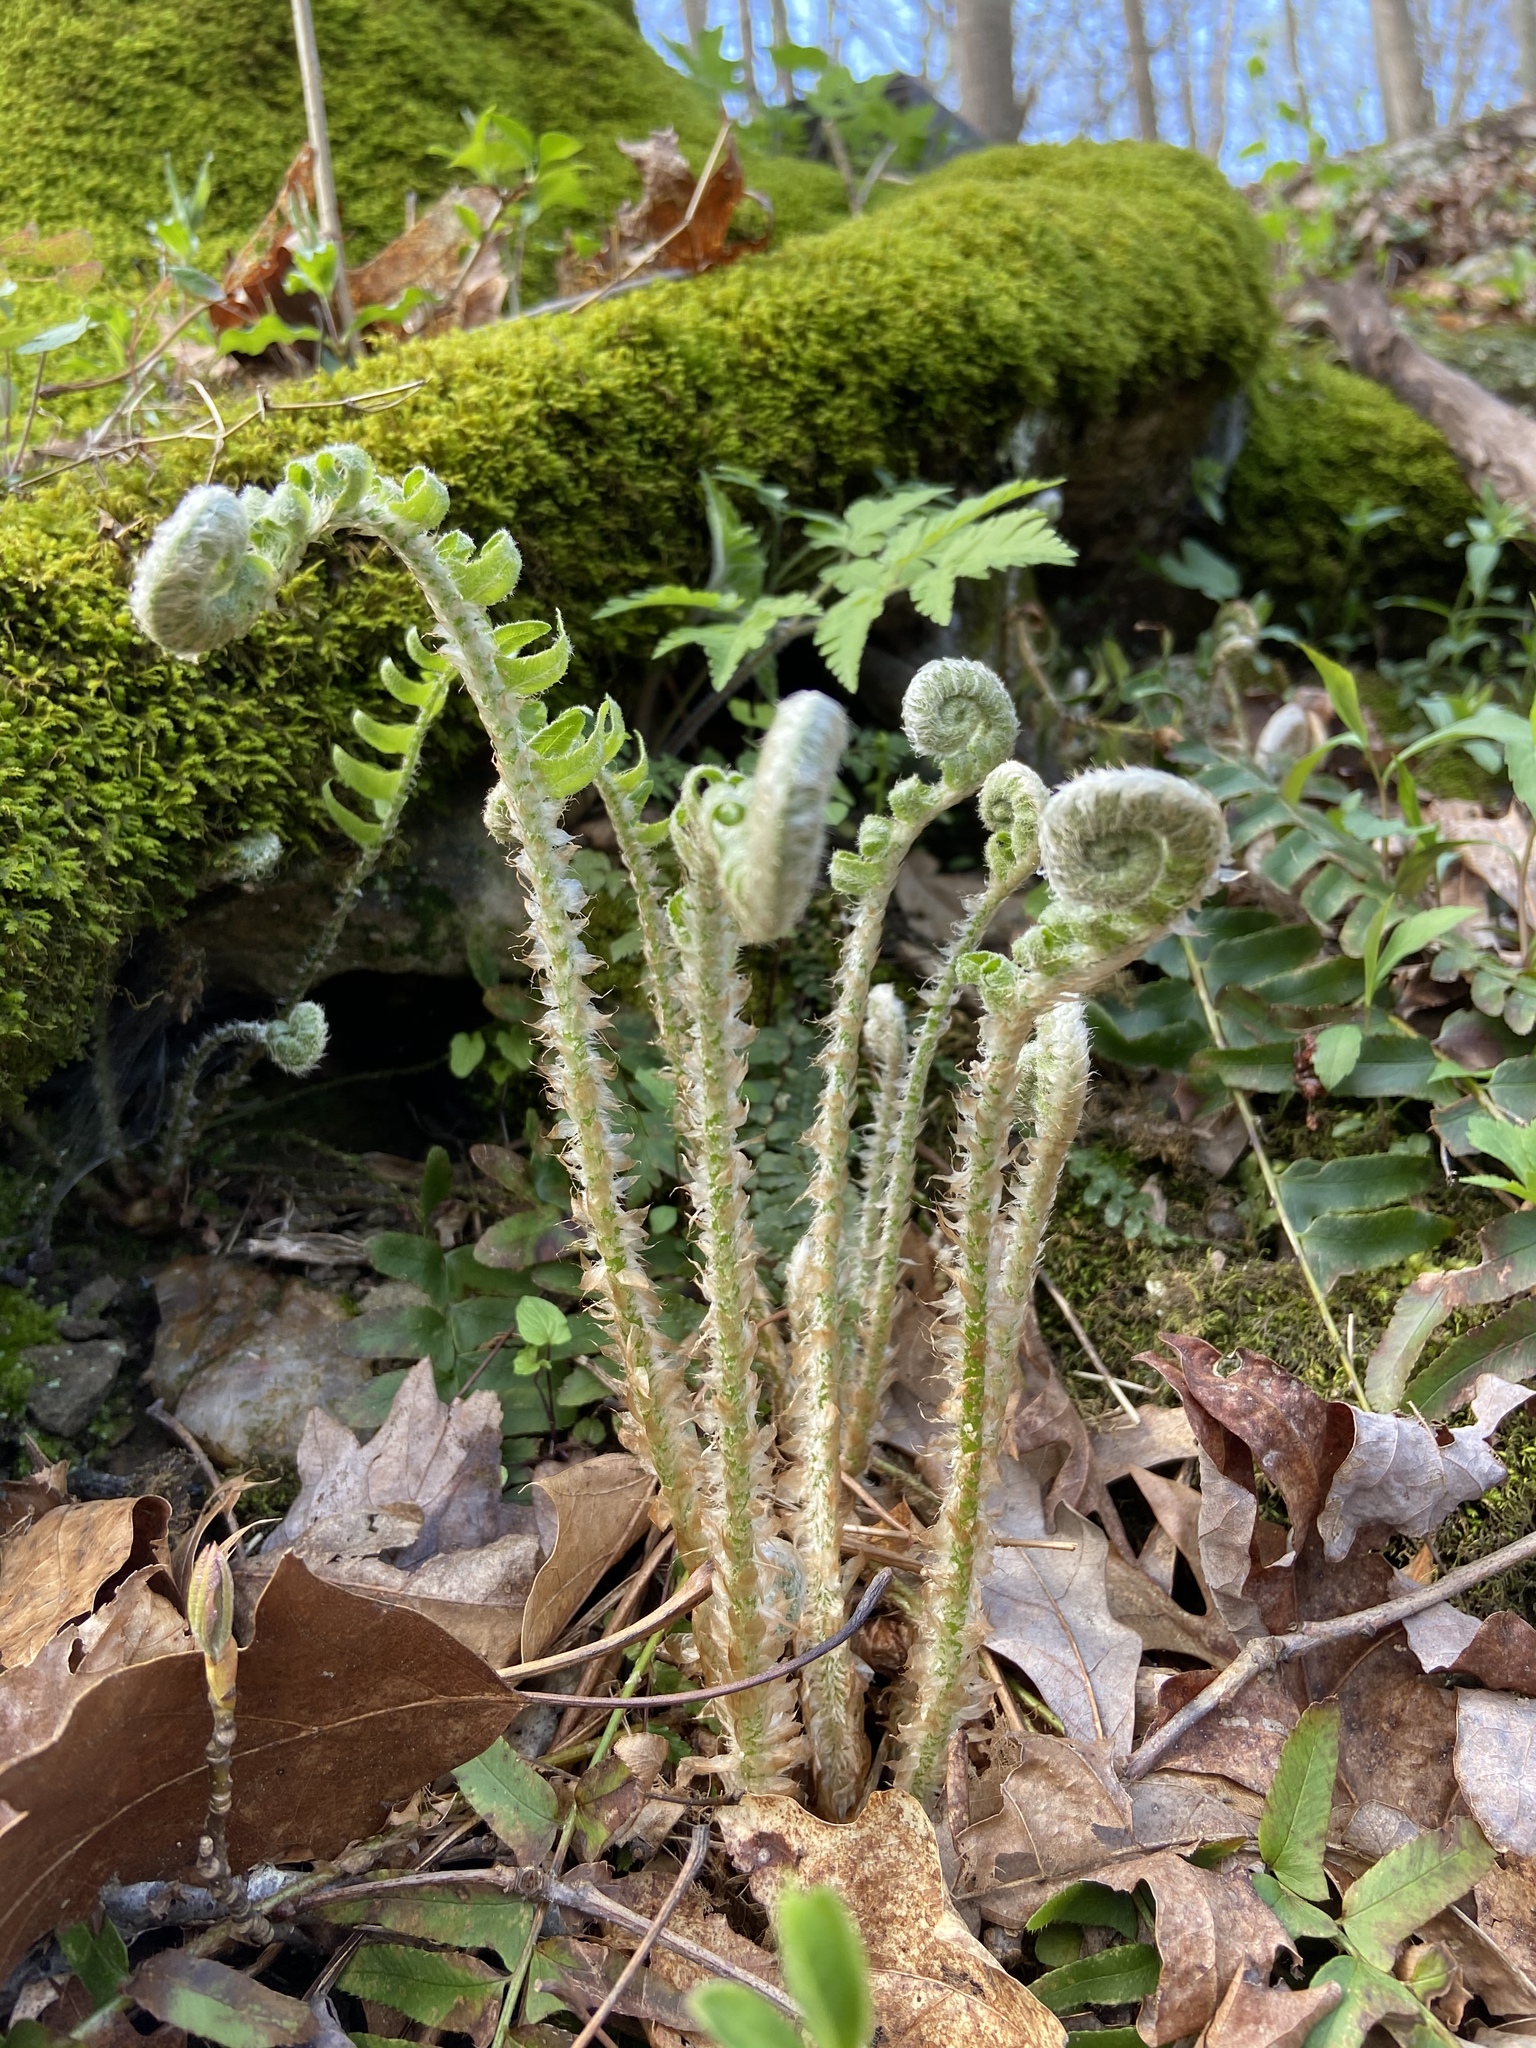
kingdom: Plantae
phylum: Tracheophyta
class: Polypodiopsida
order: Polypodiales
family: Dryopteridaceae
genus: Polystichum
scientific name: Polystichum acrostichoides
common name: Christmas fern
